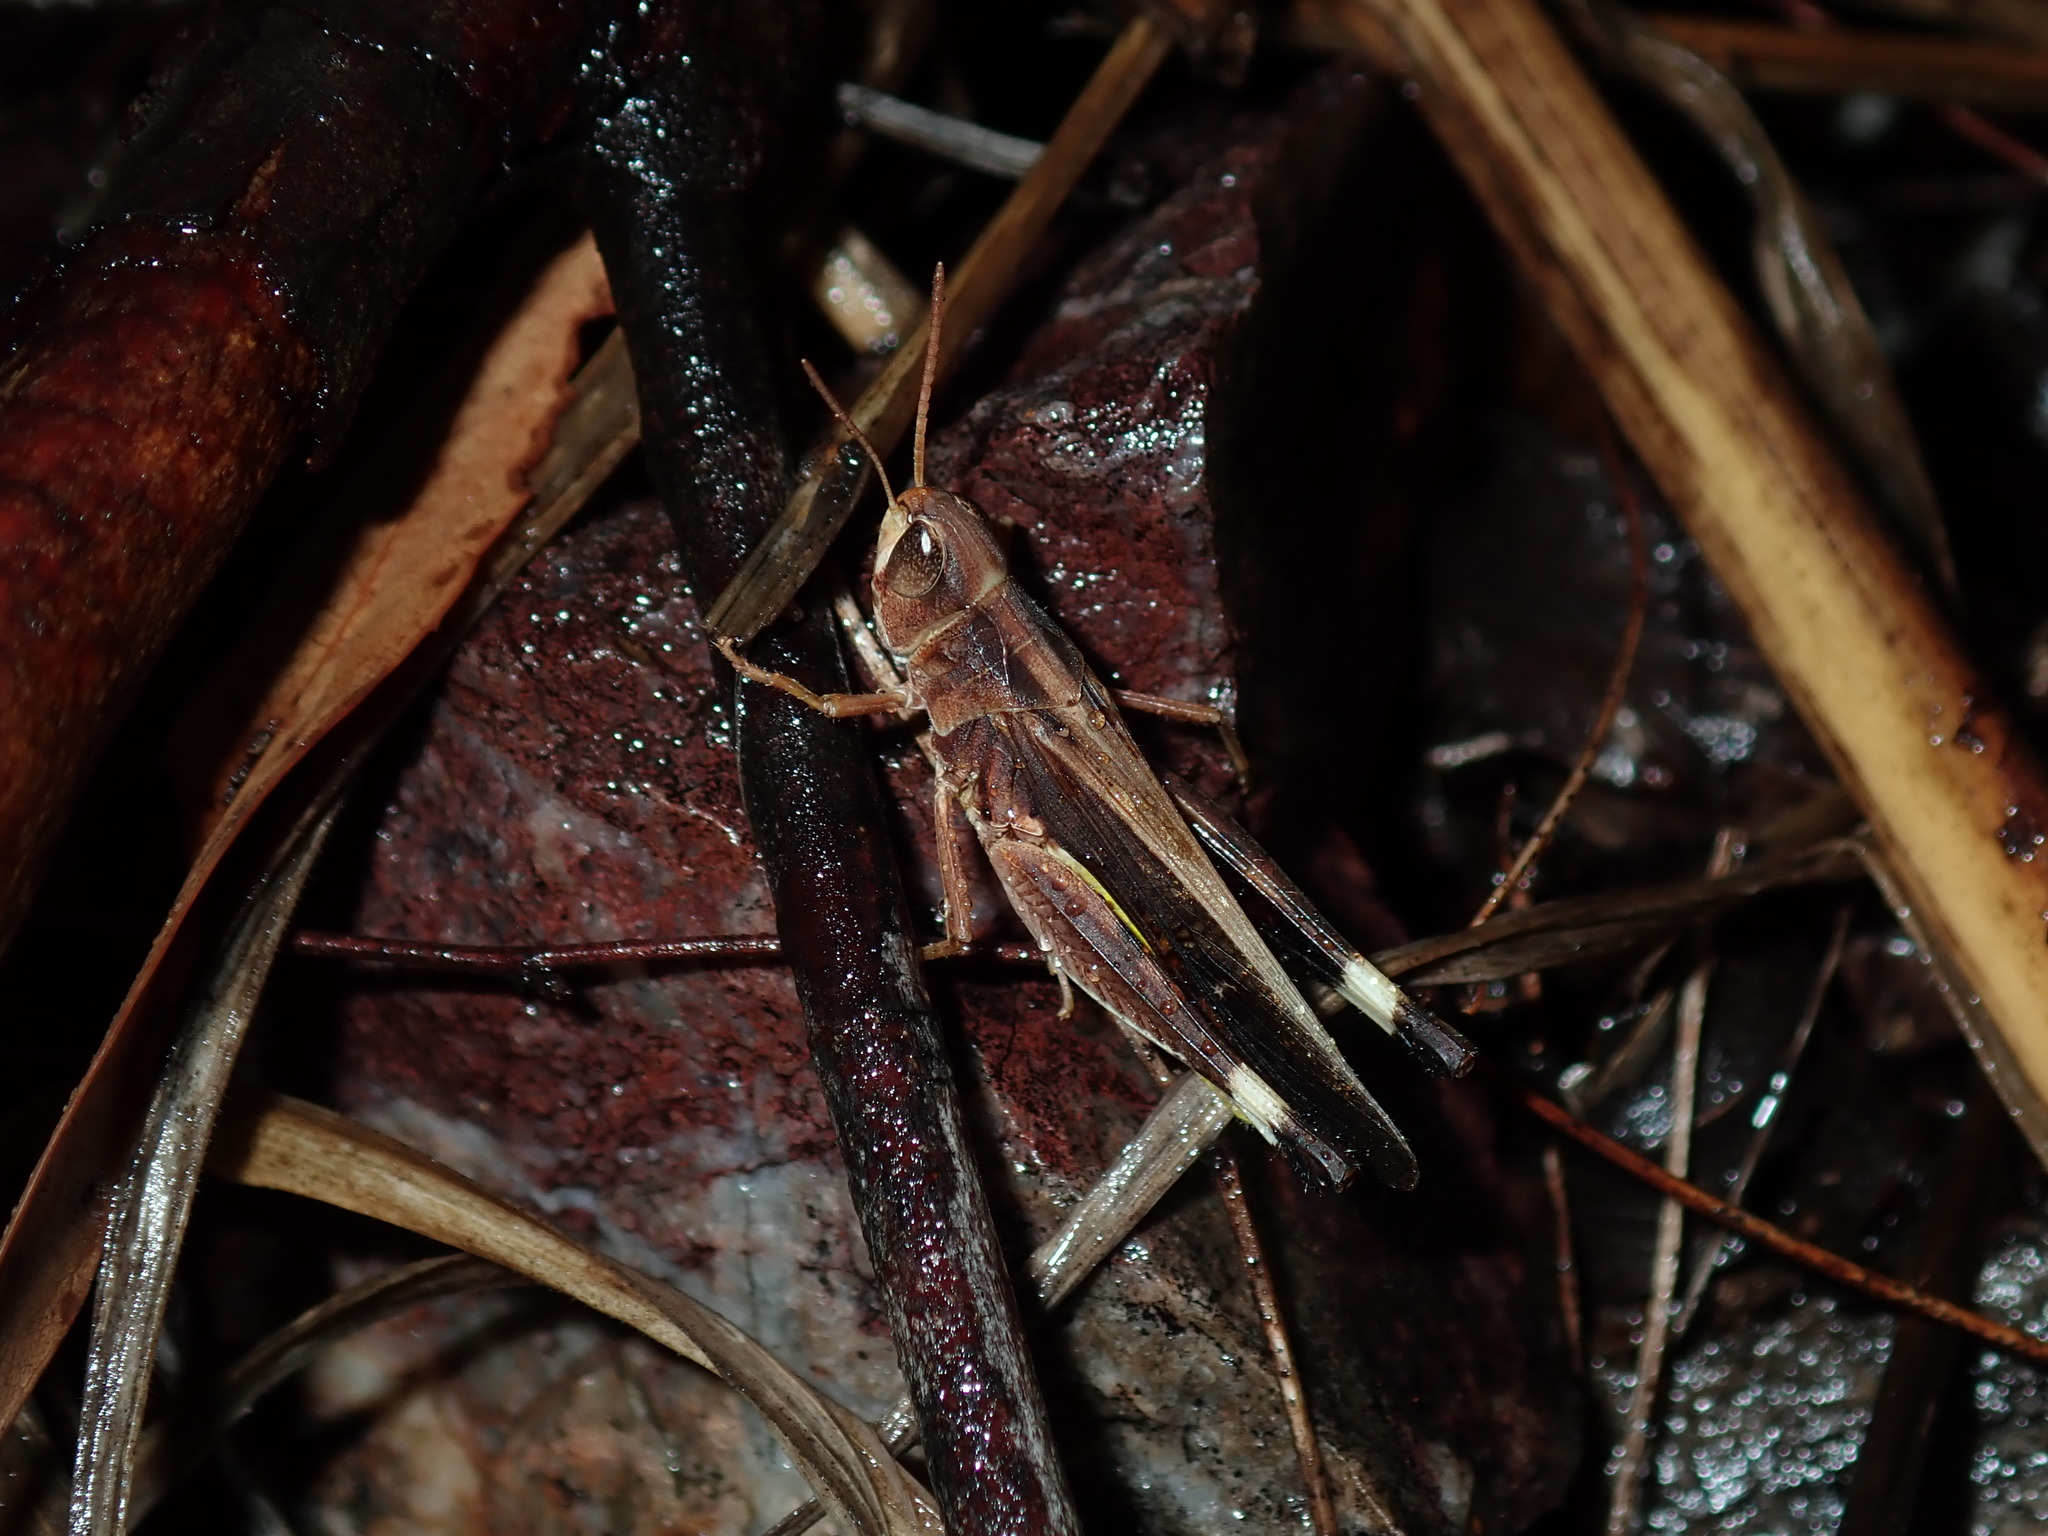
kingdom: Animalia
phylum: Arthropoda
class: Insecta
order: Orthoptera
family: Acrididae
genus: Caledia
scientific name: Caledia captiva
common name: Caledia
